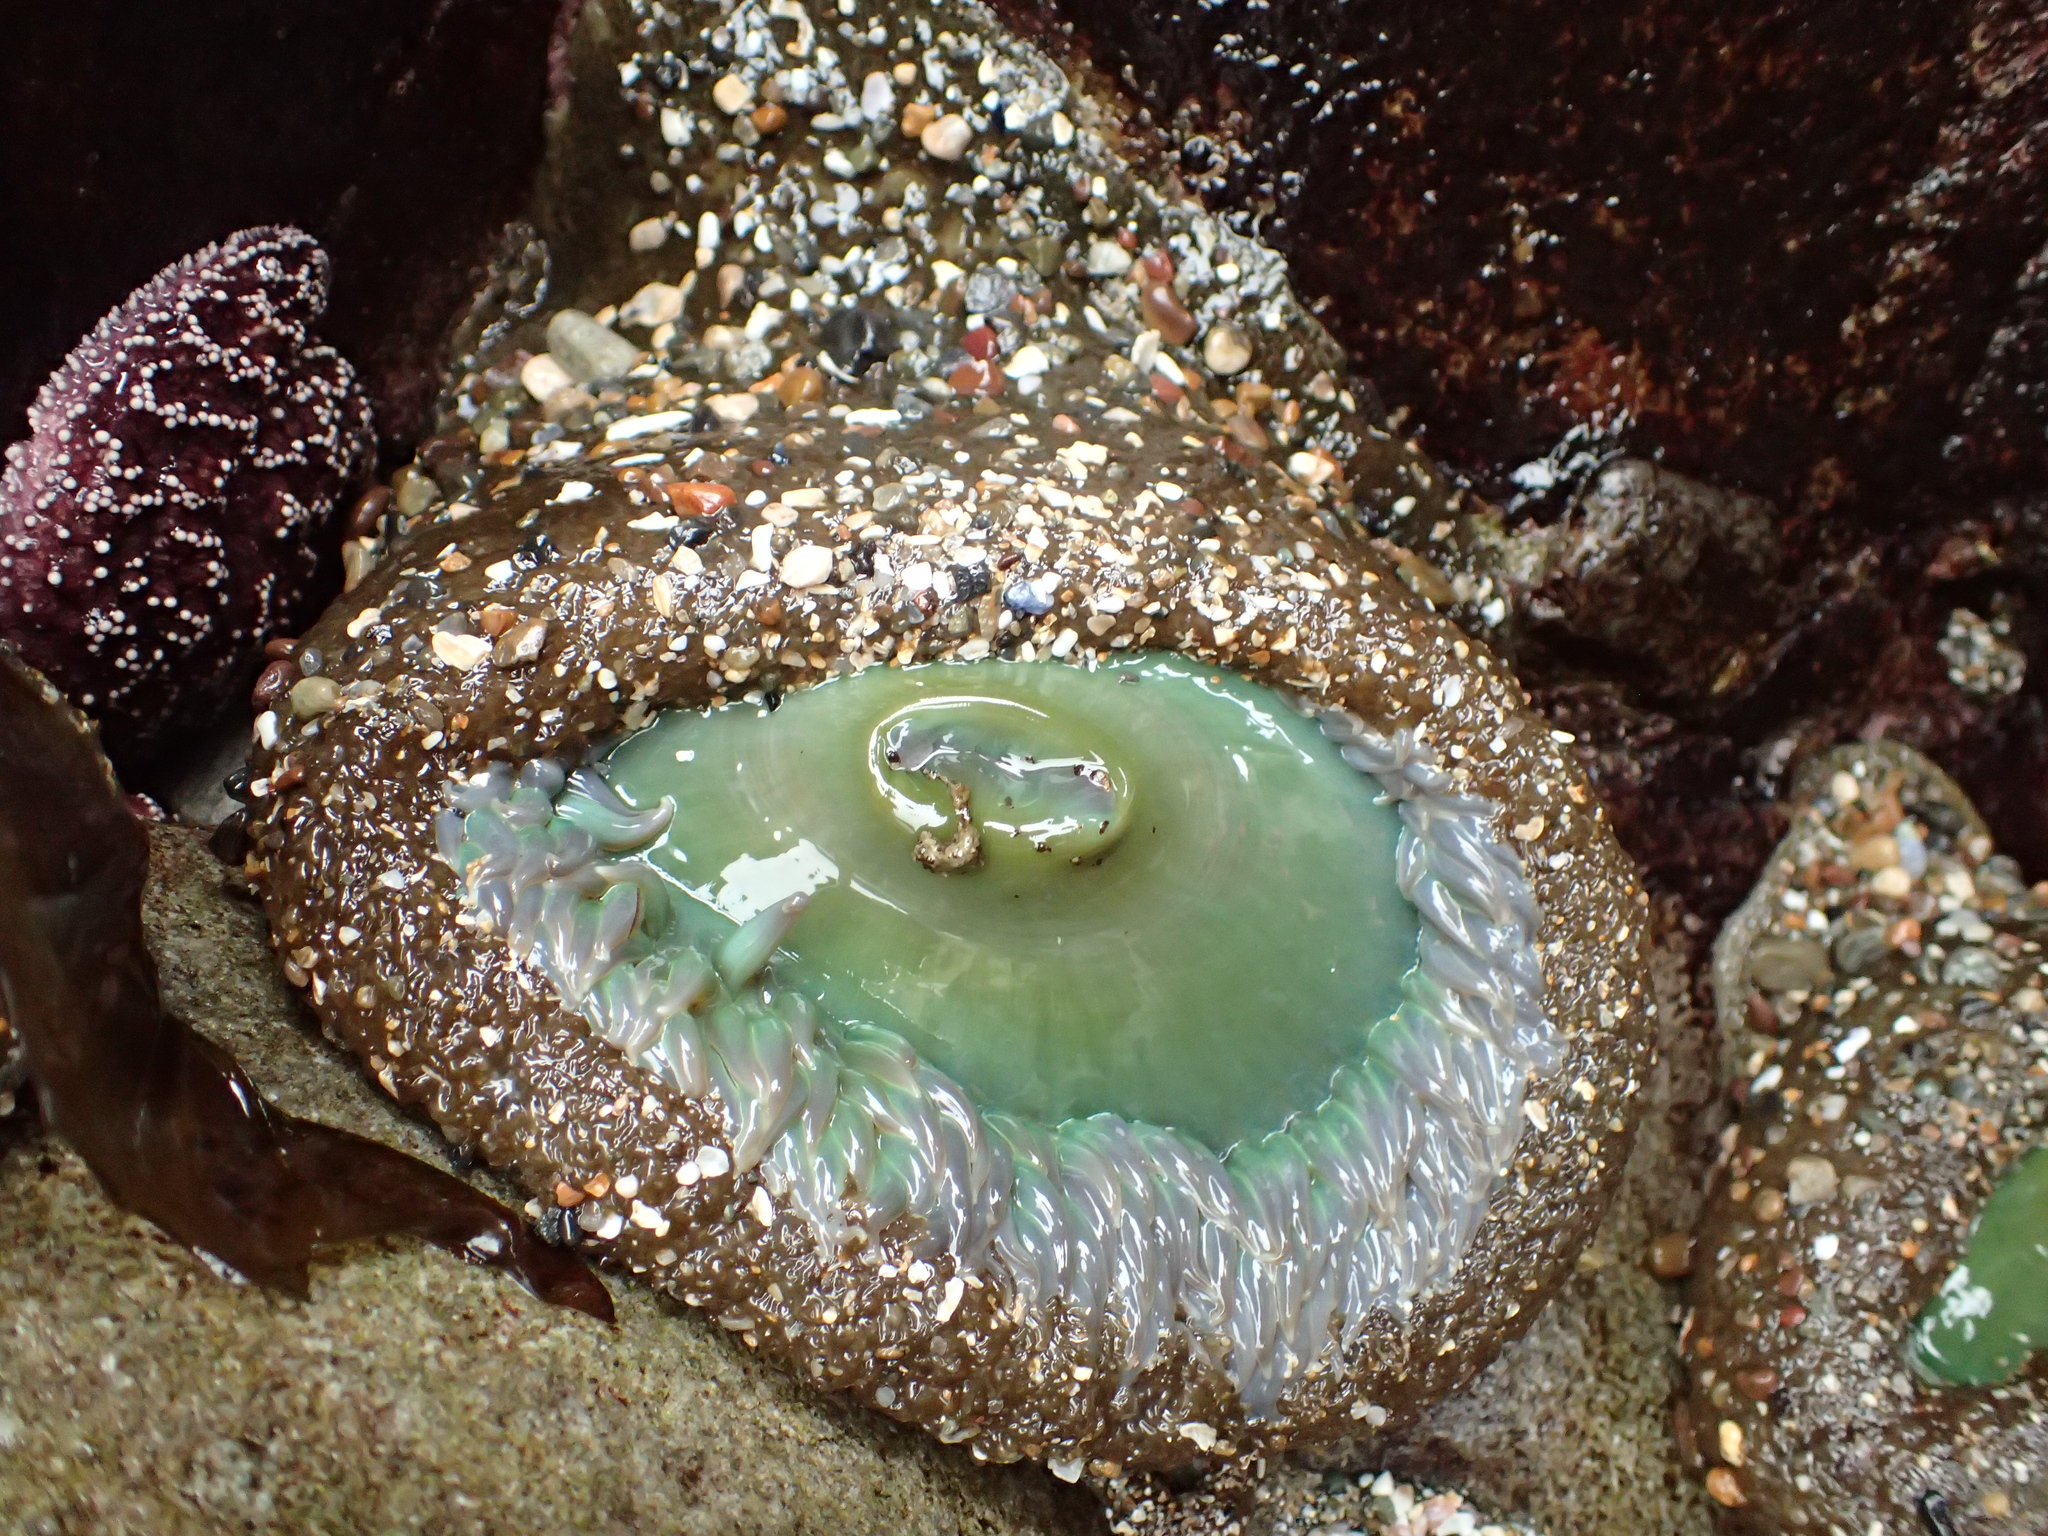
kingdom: Animalia
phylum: Cnidaria
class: Anthozoa
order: Actiniaria
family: Actiniidae
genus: Anthopleura
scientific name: Anthopleura xanthogrammica
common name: Giant green anemone
